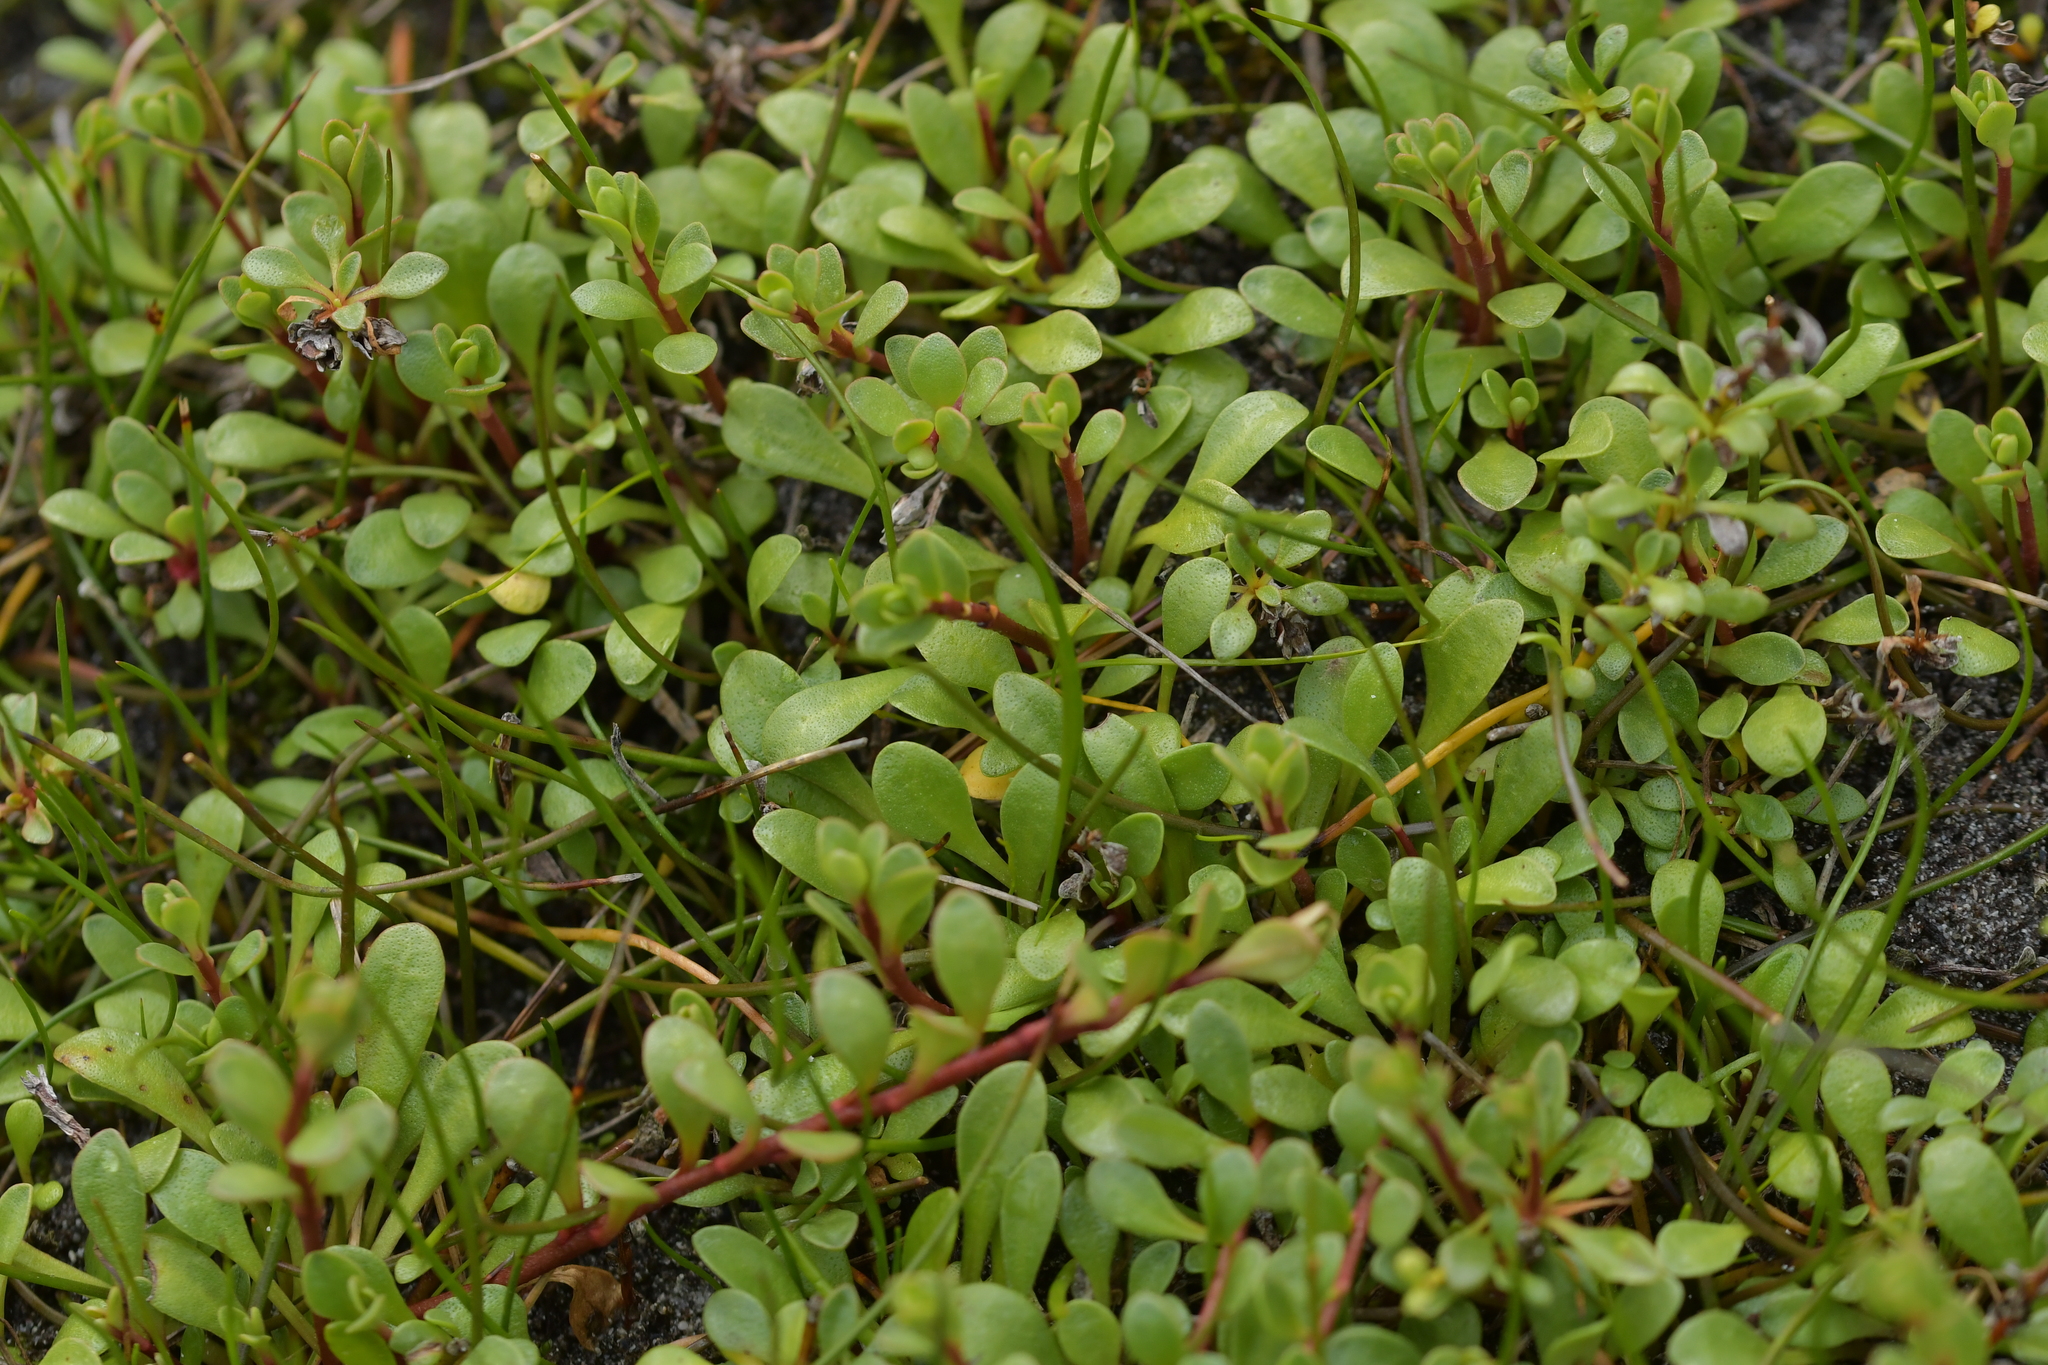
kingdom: Plantae
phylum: Tracheophyta
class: Magnoliopsida
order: Ericales
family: Primulaceae
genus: Samolus
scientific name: Samolus repens
